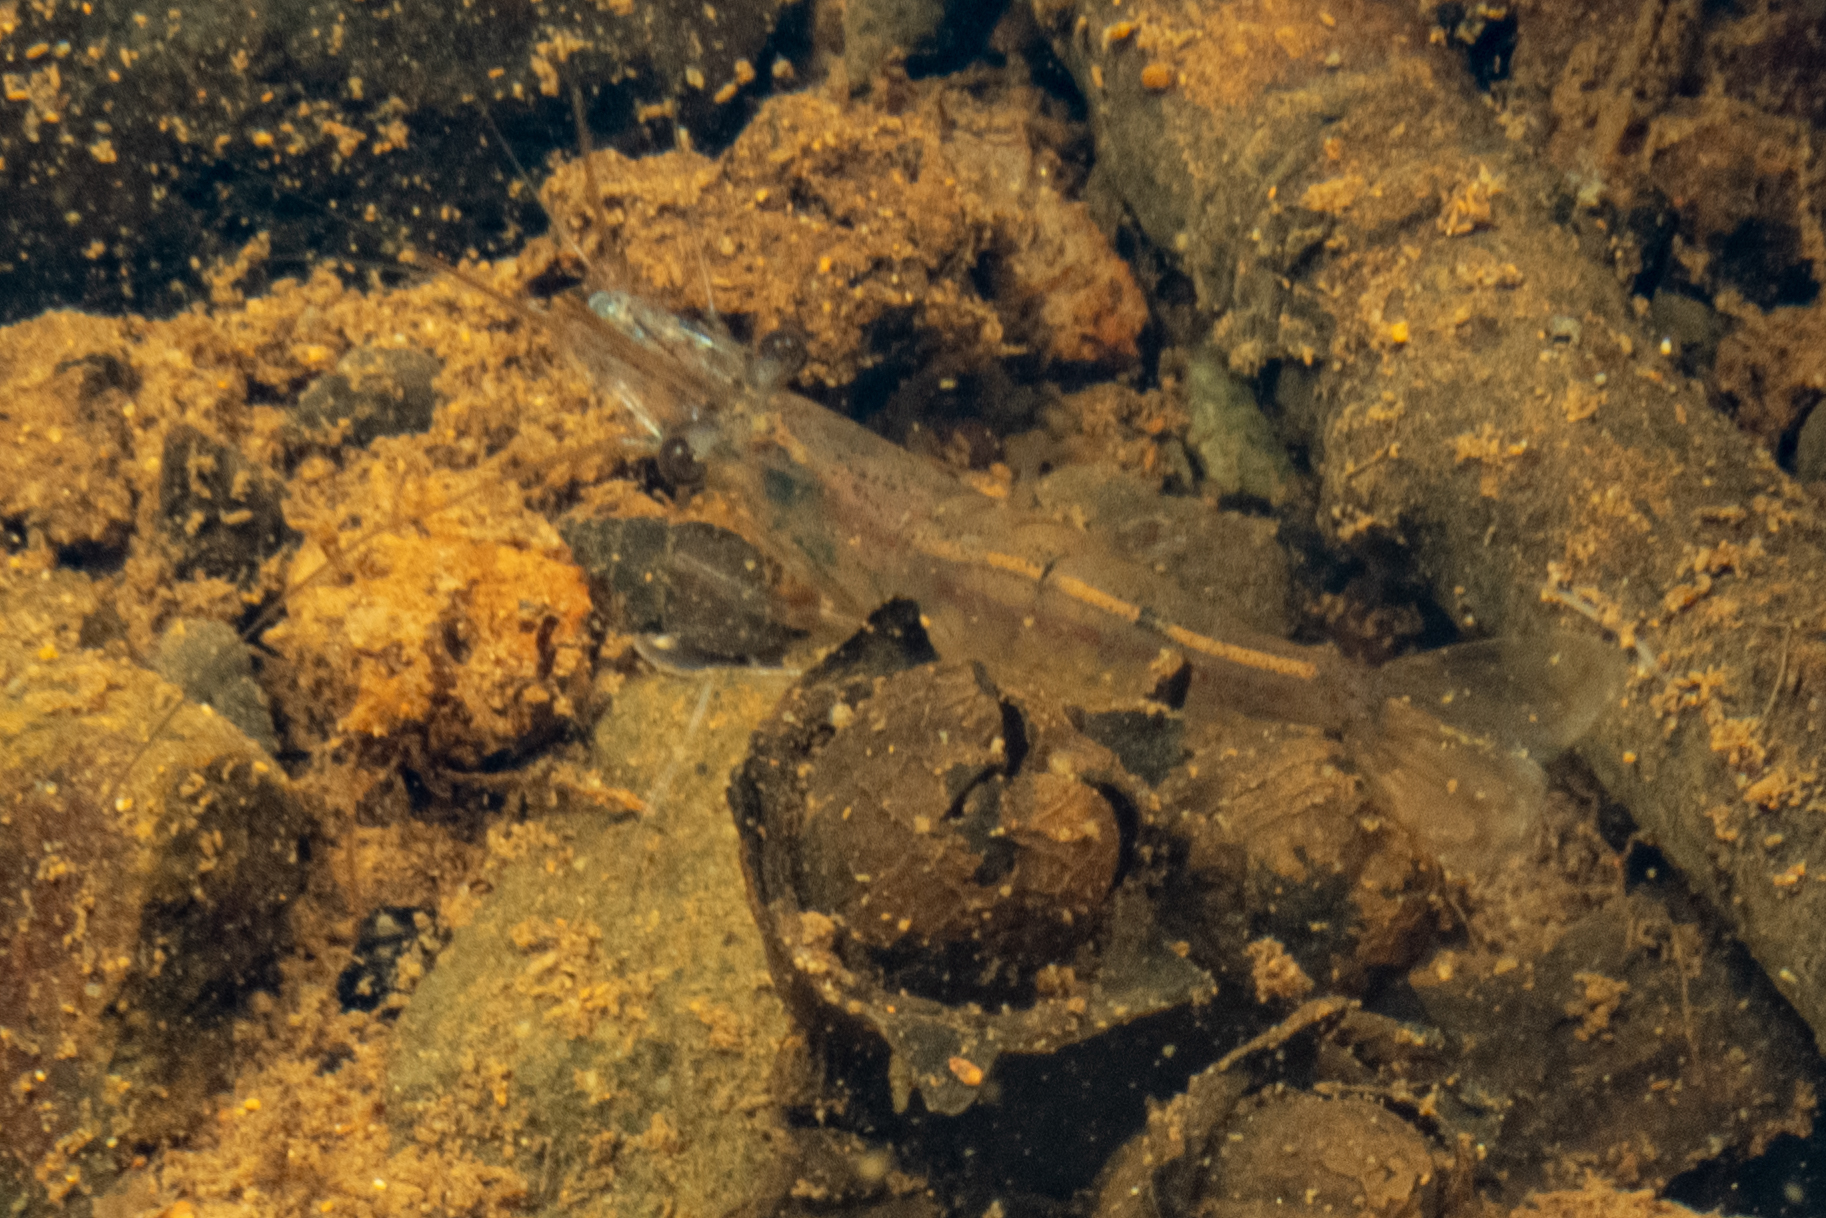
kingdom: Animalia
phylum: Arthropoda
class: Malacostraca
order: Decapoda
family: Atyidae
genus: Paratya
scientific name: Paratya curvirostris
